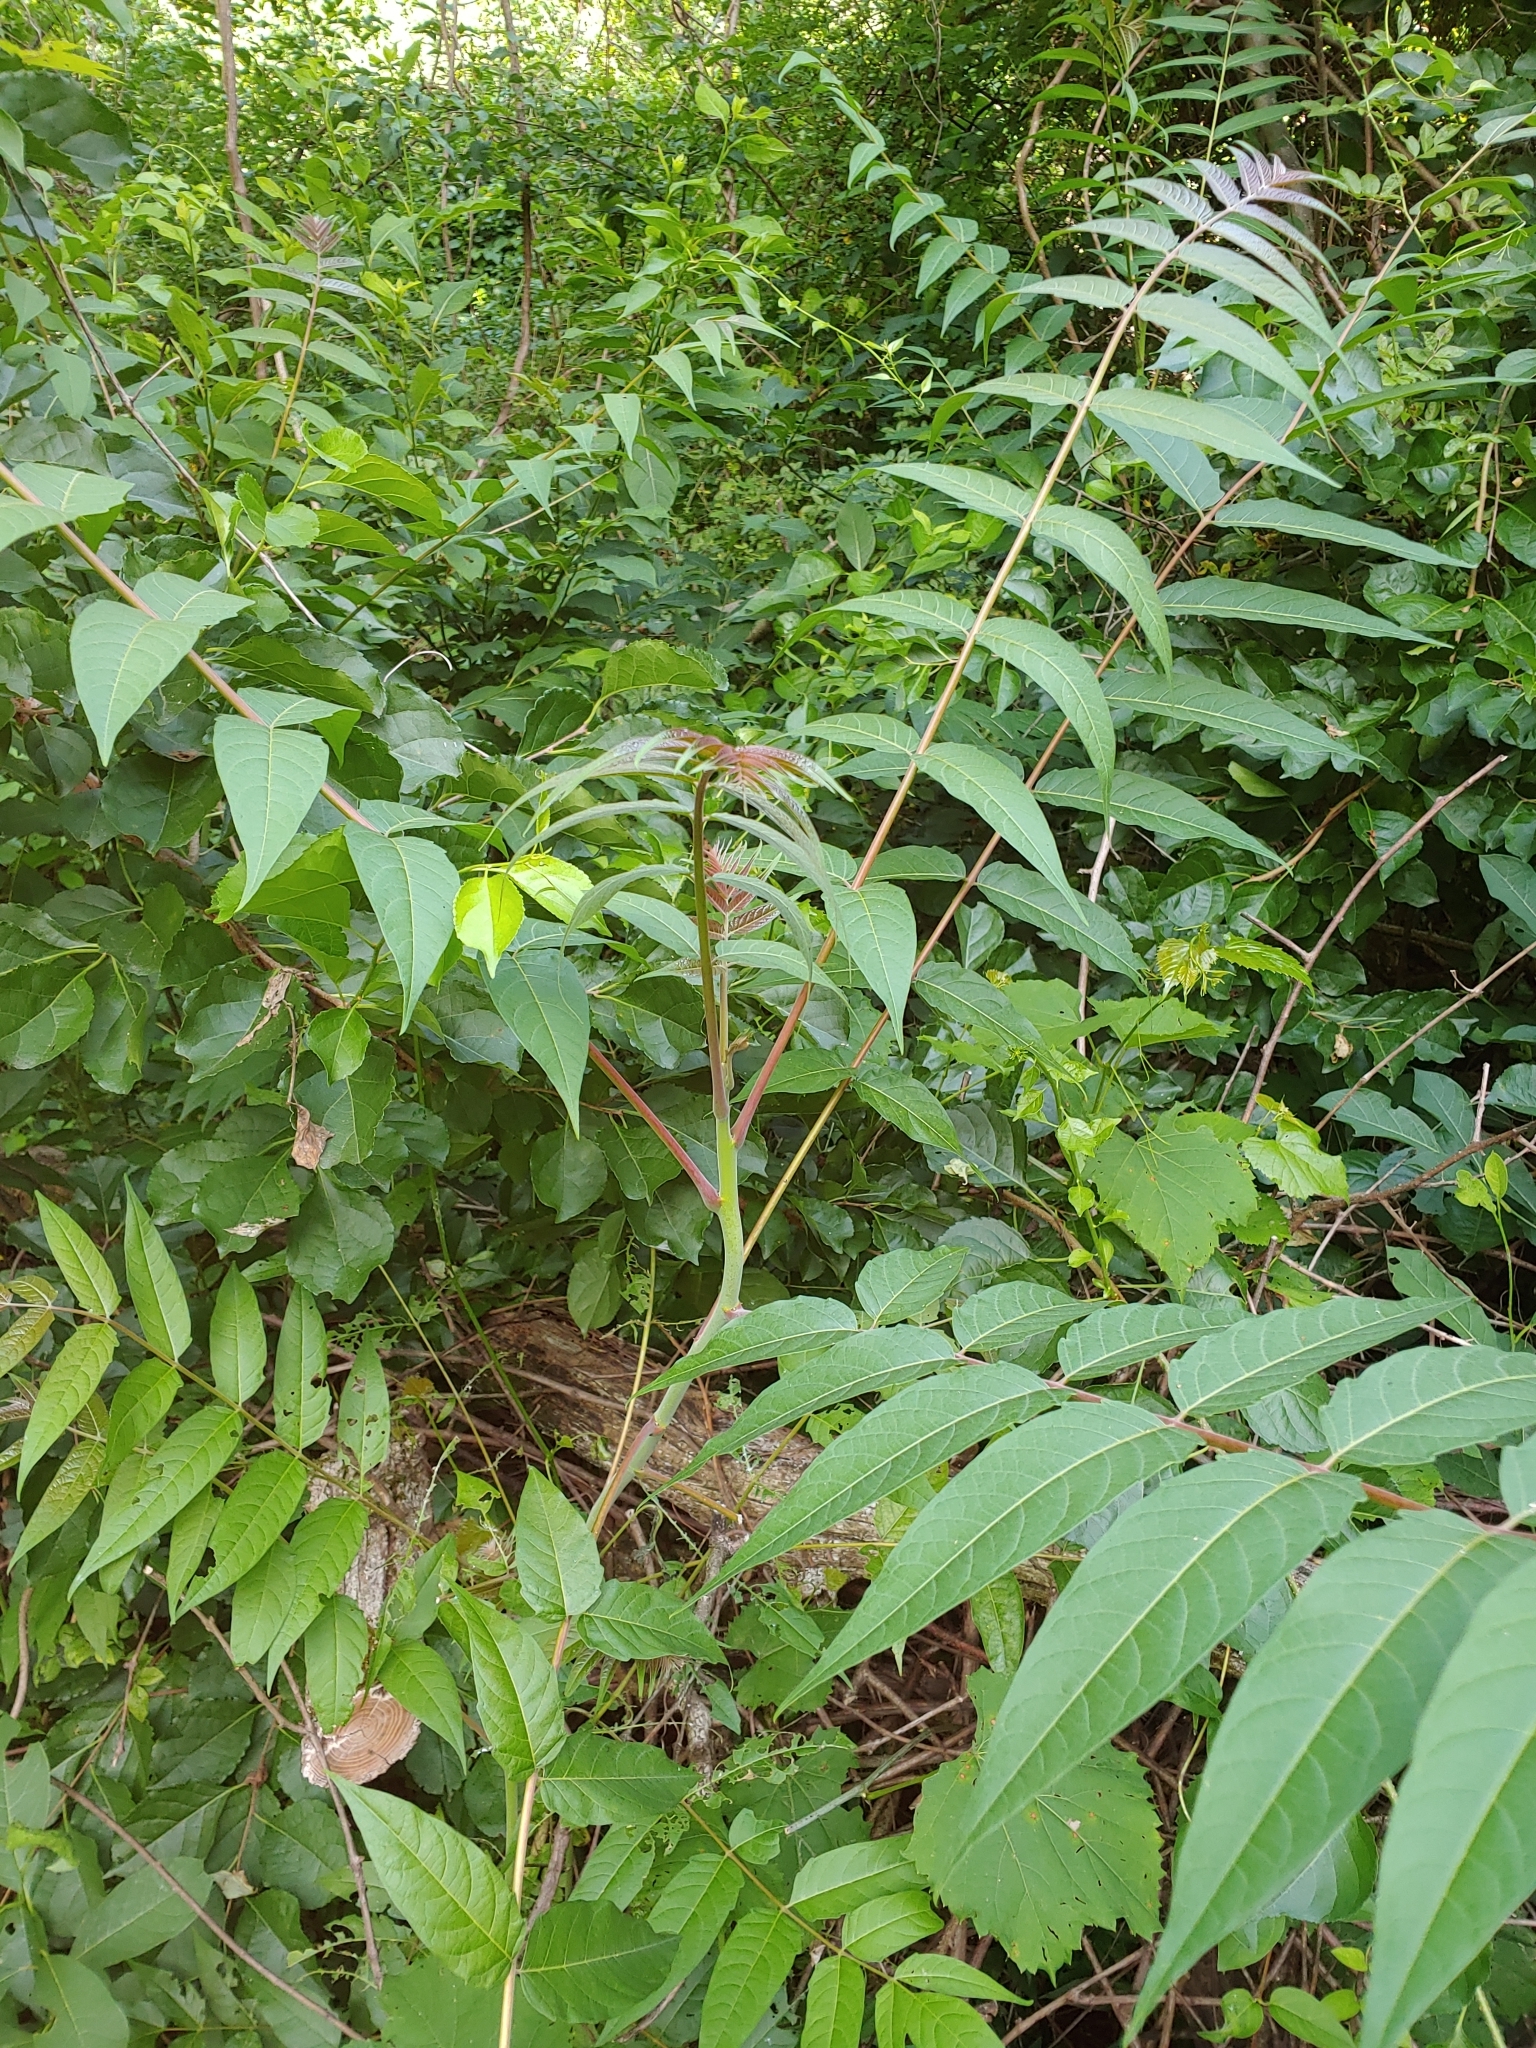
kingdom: Plantae
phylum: Tracheophyta
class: Magnoliopsida
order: Sapindales
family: Simaroubaceae
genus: Ailanthus
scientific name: Ailanthus altissima
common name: Tree-of-heaven
